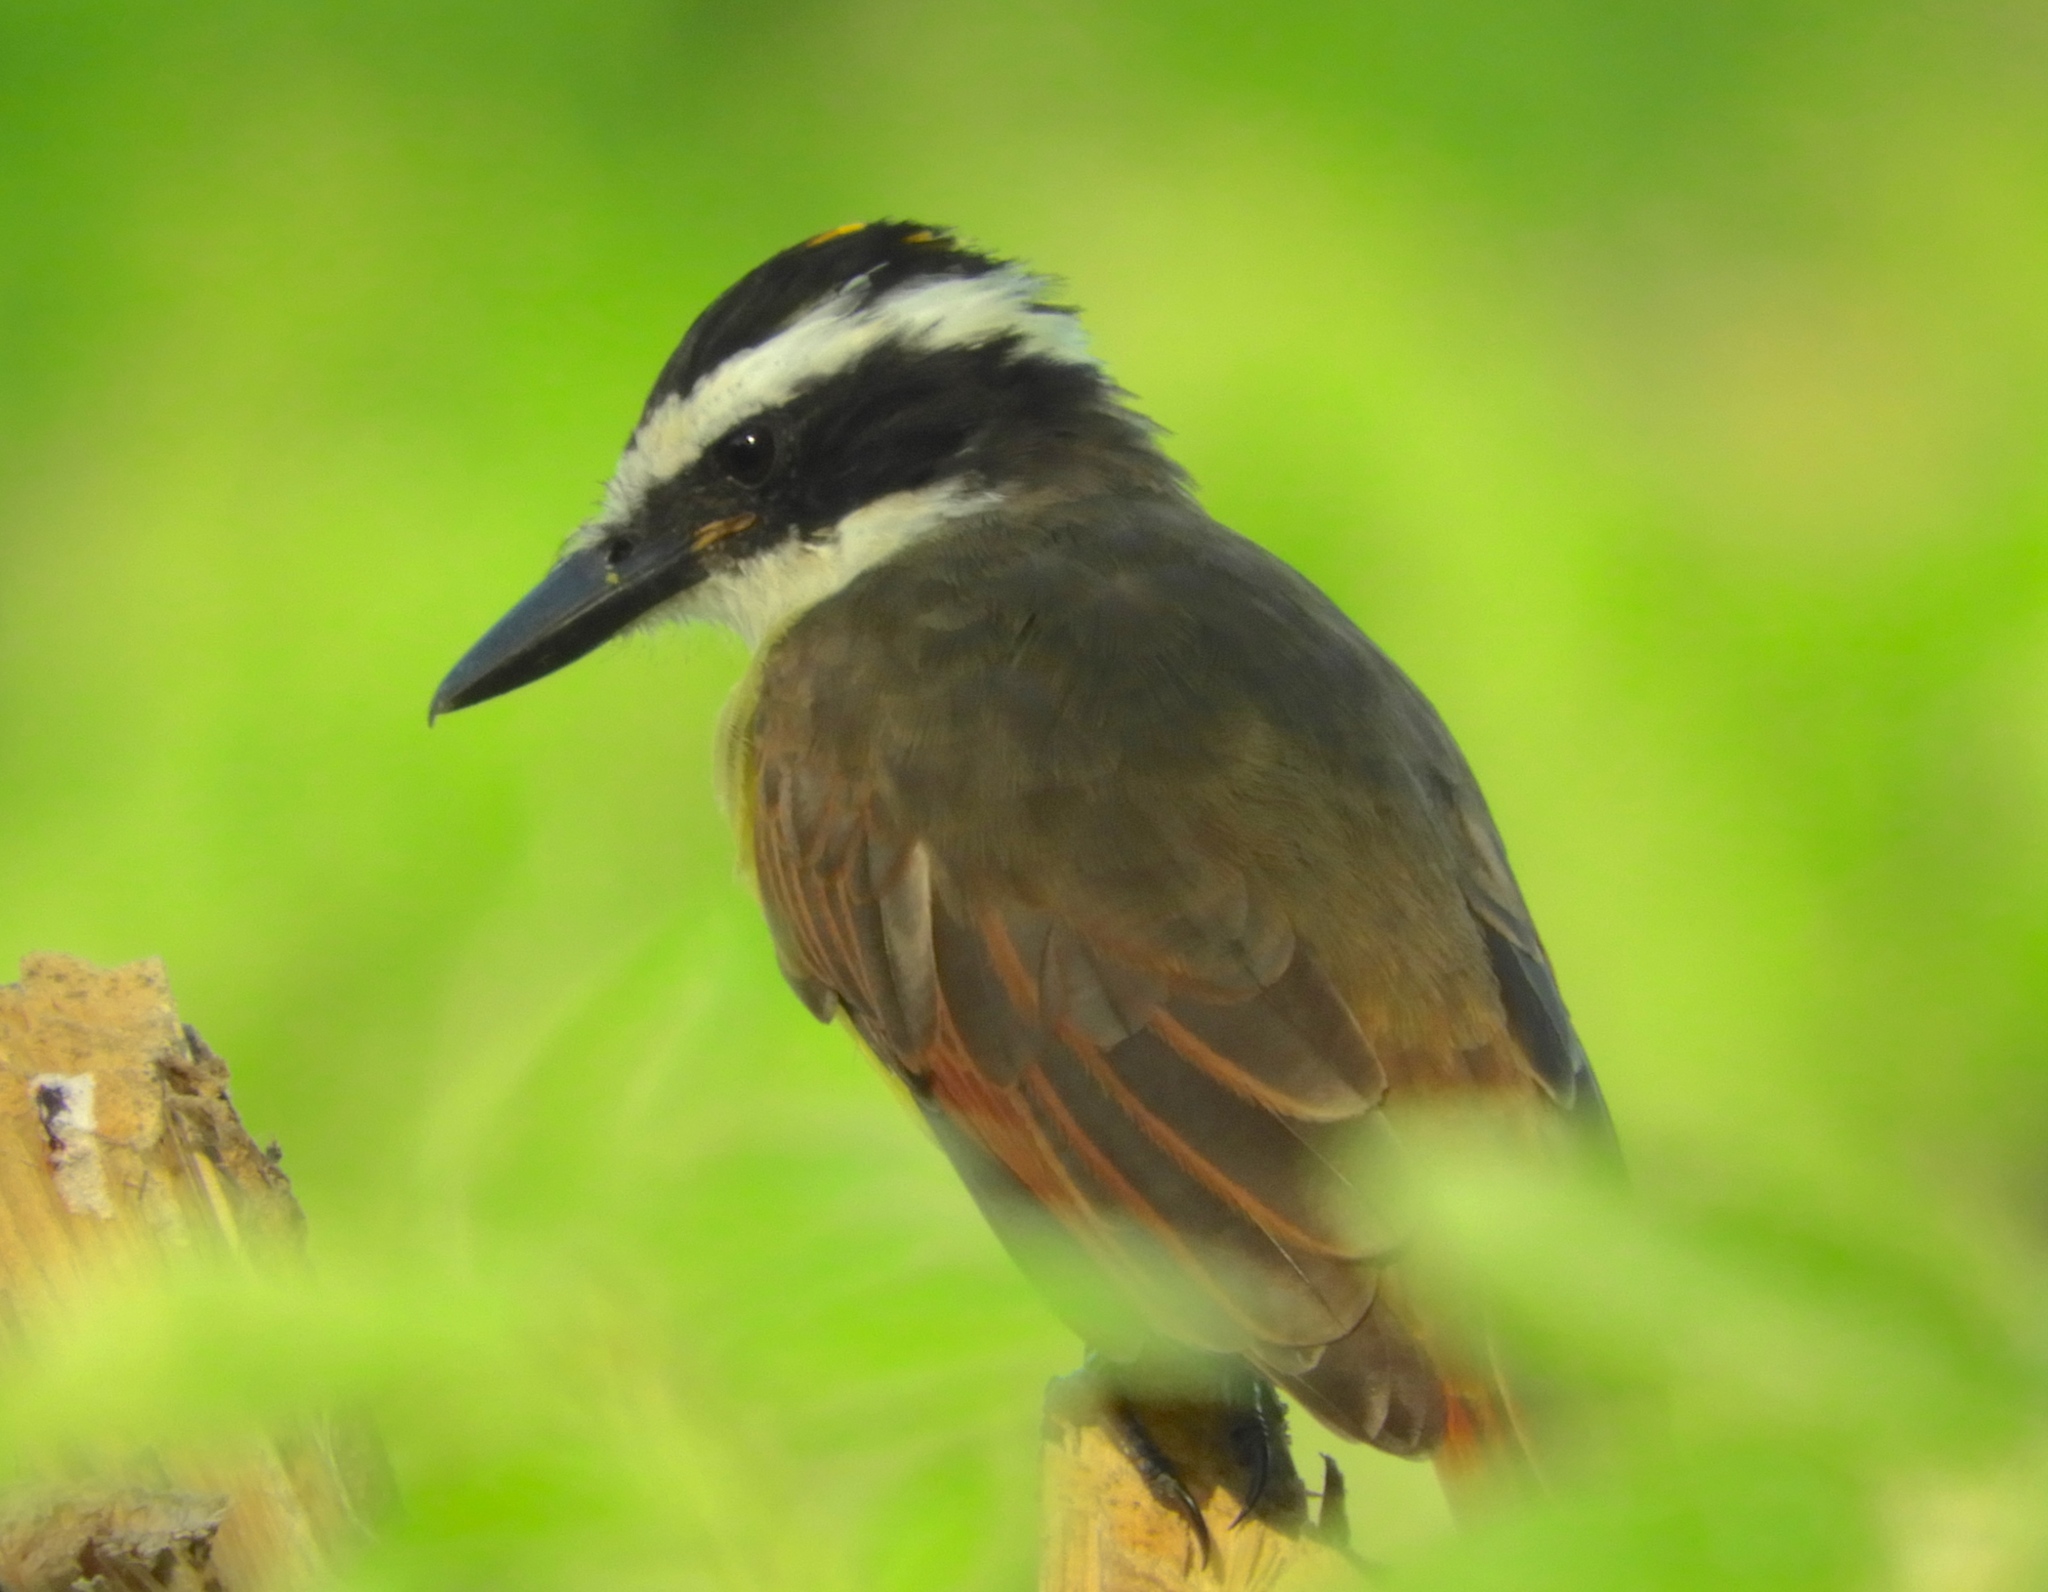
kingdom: Animalia
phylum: Chordata
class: Aves
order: Passeriformes
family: Tyrannidae
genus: Pitangus
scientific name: Pitangus sulphuratus
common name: Great kiskadee
